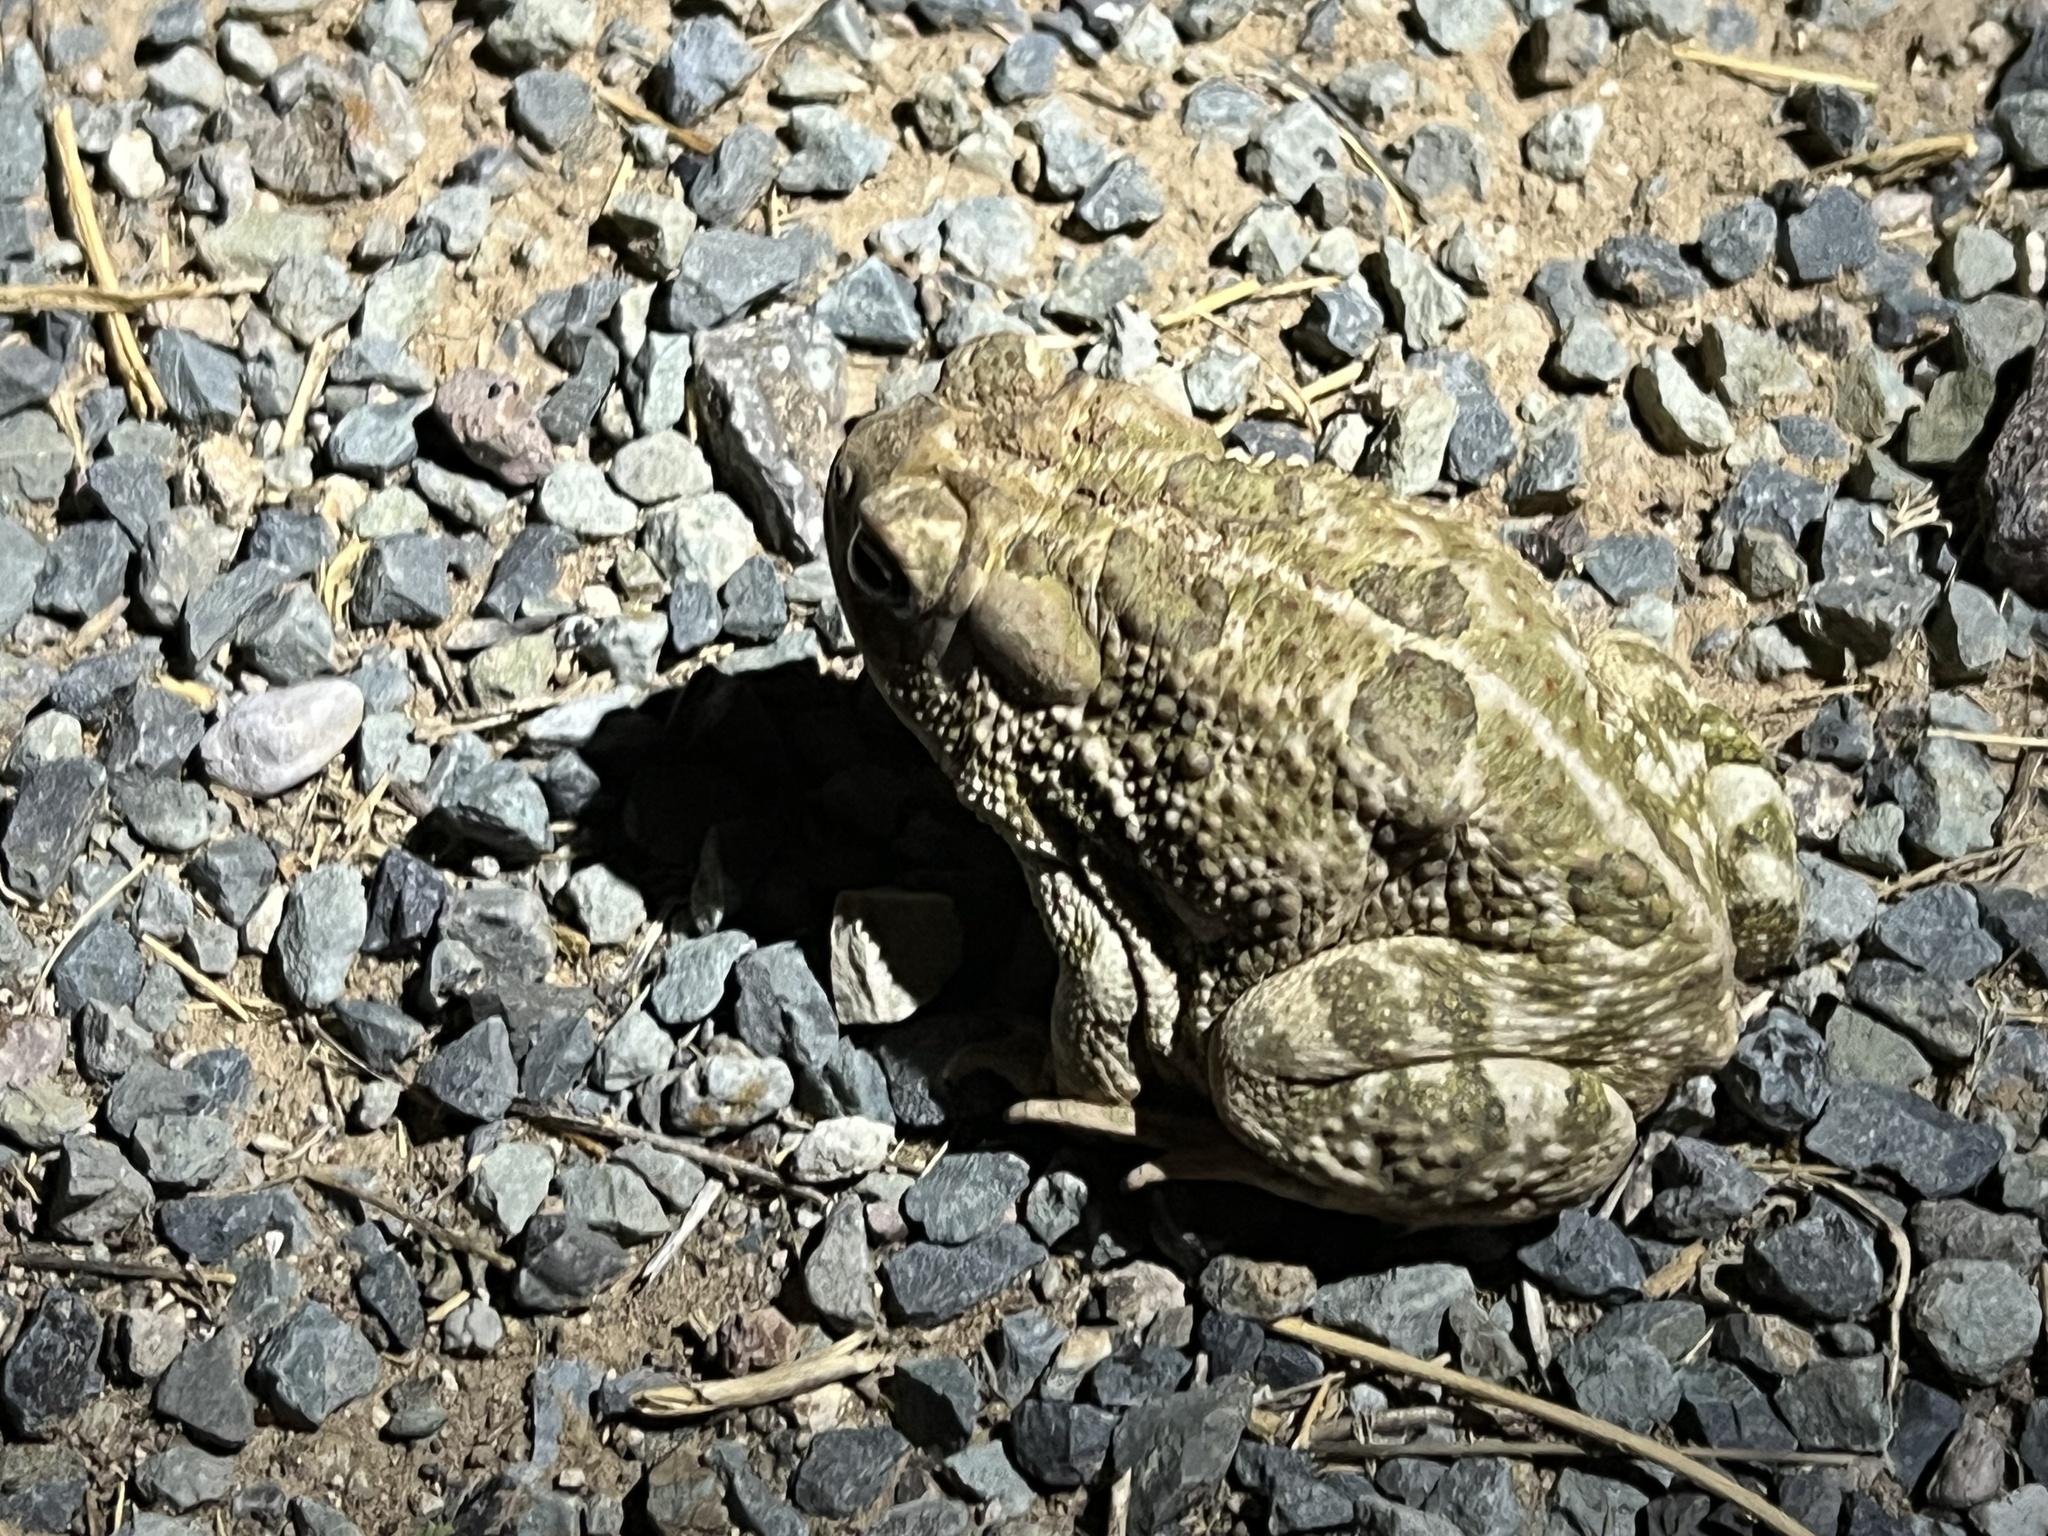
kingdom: Animalia
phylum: Chordata
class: Amphibia
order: Anura
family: Bufonidae
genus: Anaxyrus
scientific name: Anaxyrus cognatus
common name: Great plains toad
